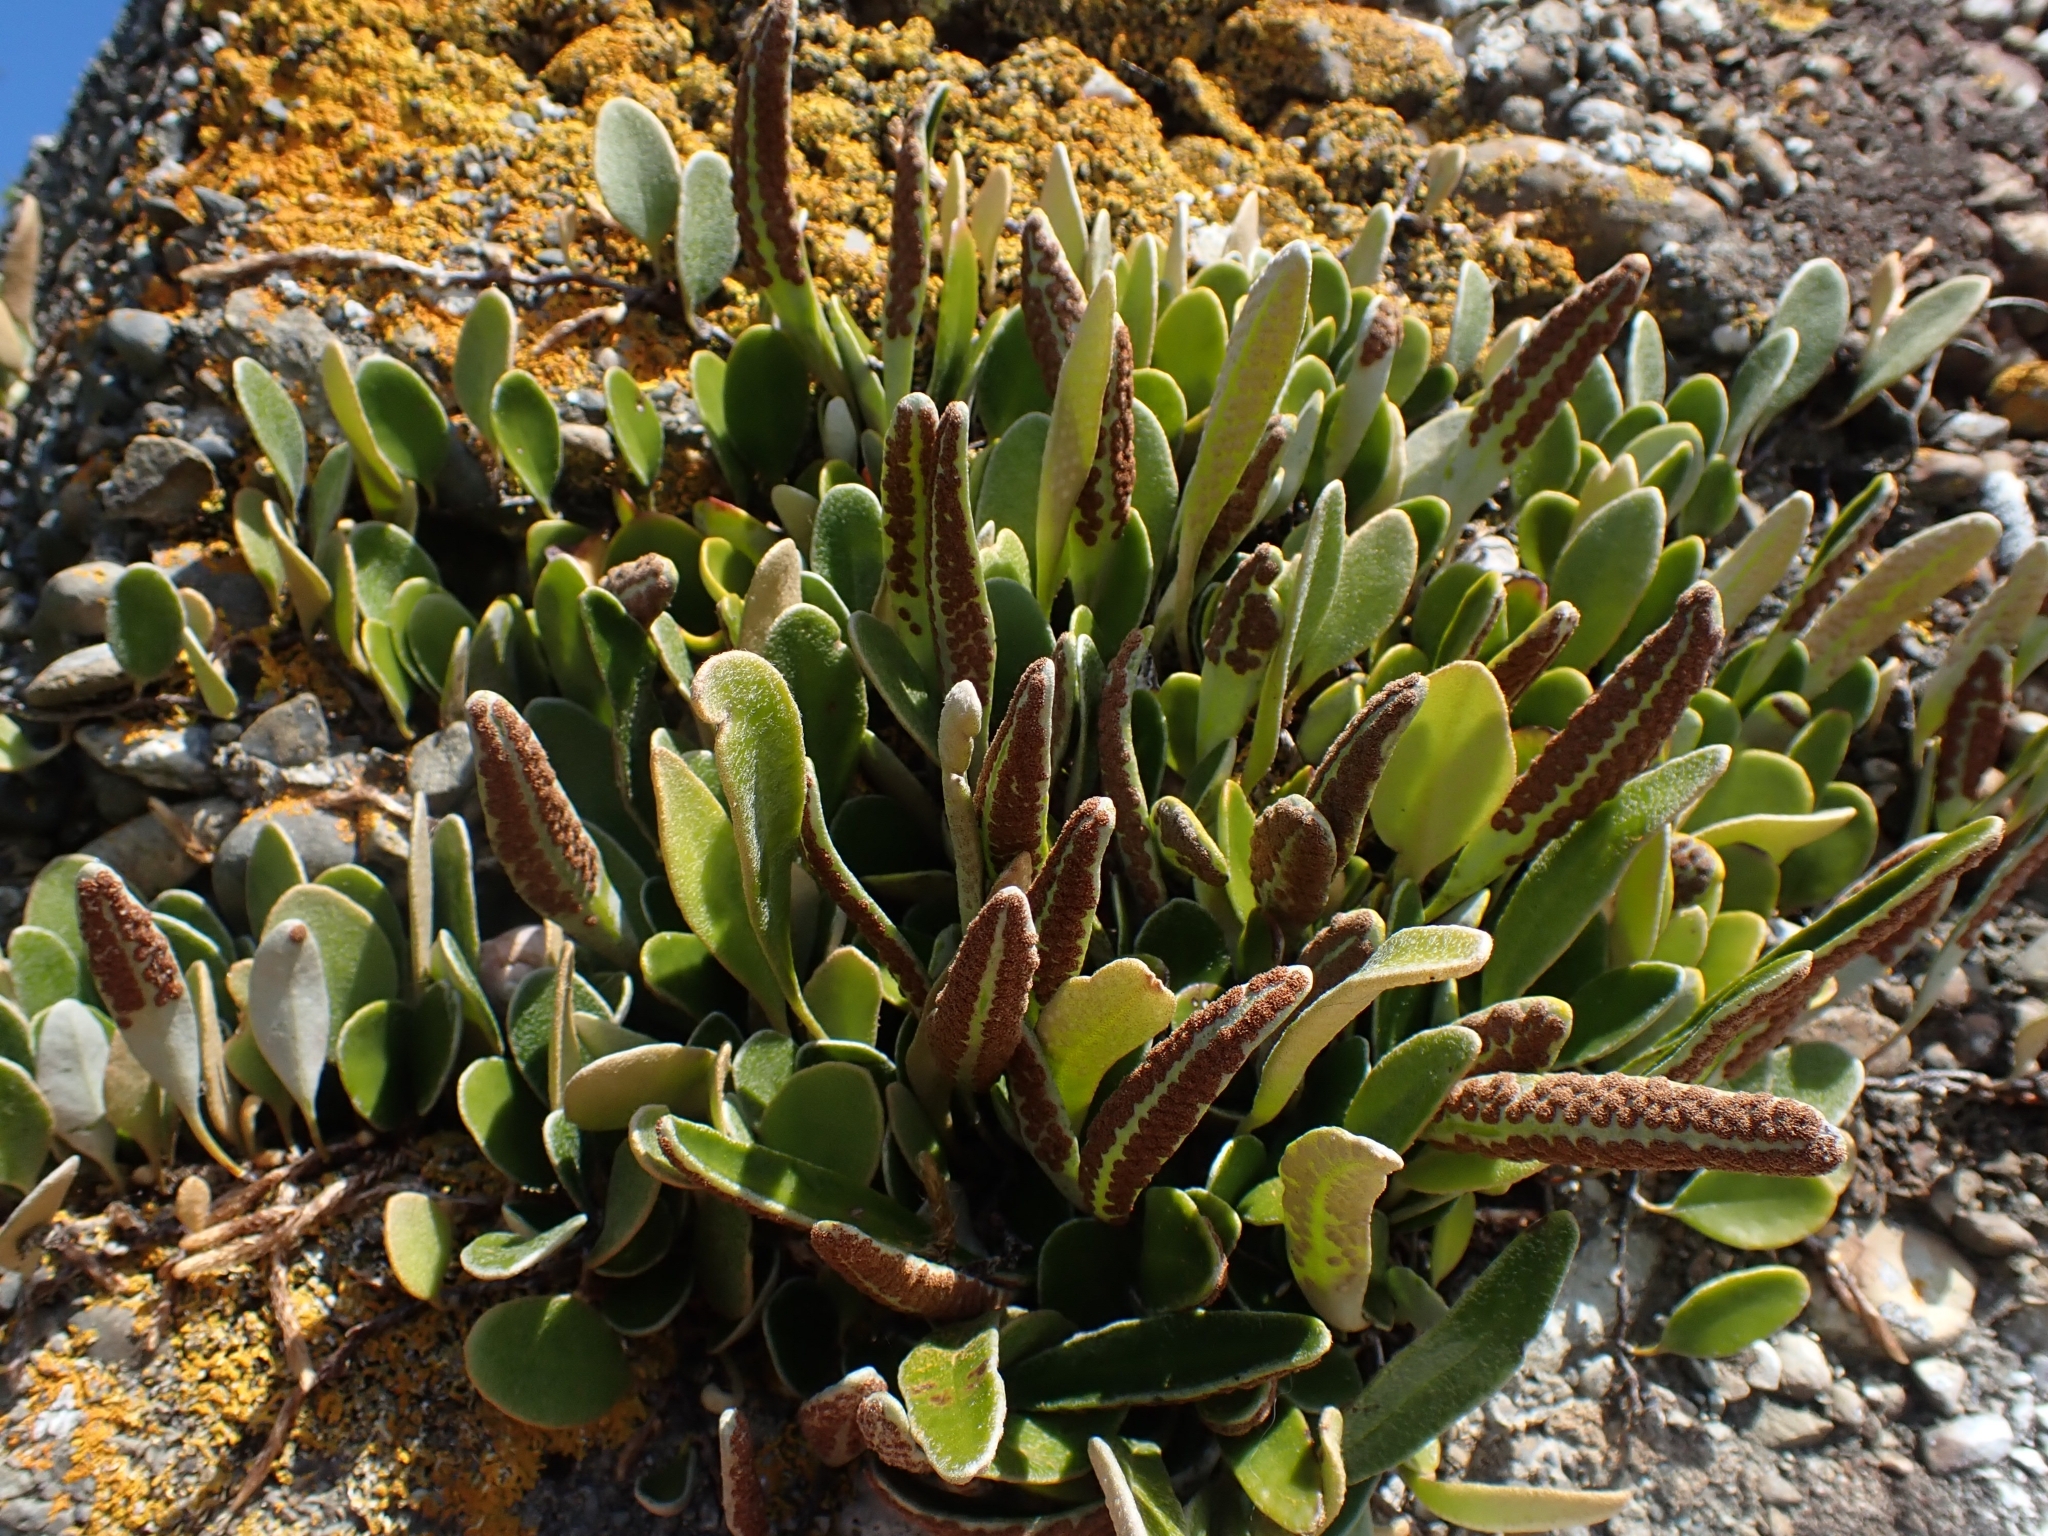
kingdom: Plantae
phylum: Tracheophyta
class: Polypodiopsida
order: Polypodiales
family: Polypodiaceae
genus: Pyrrosia
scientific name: Pyrrosia eleagnifolia
